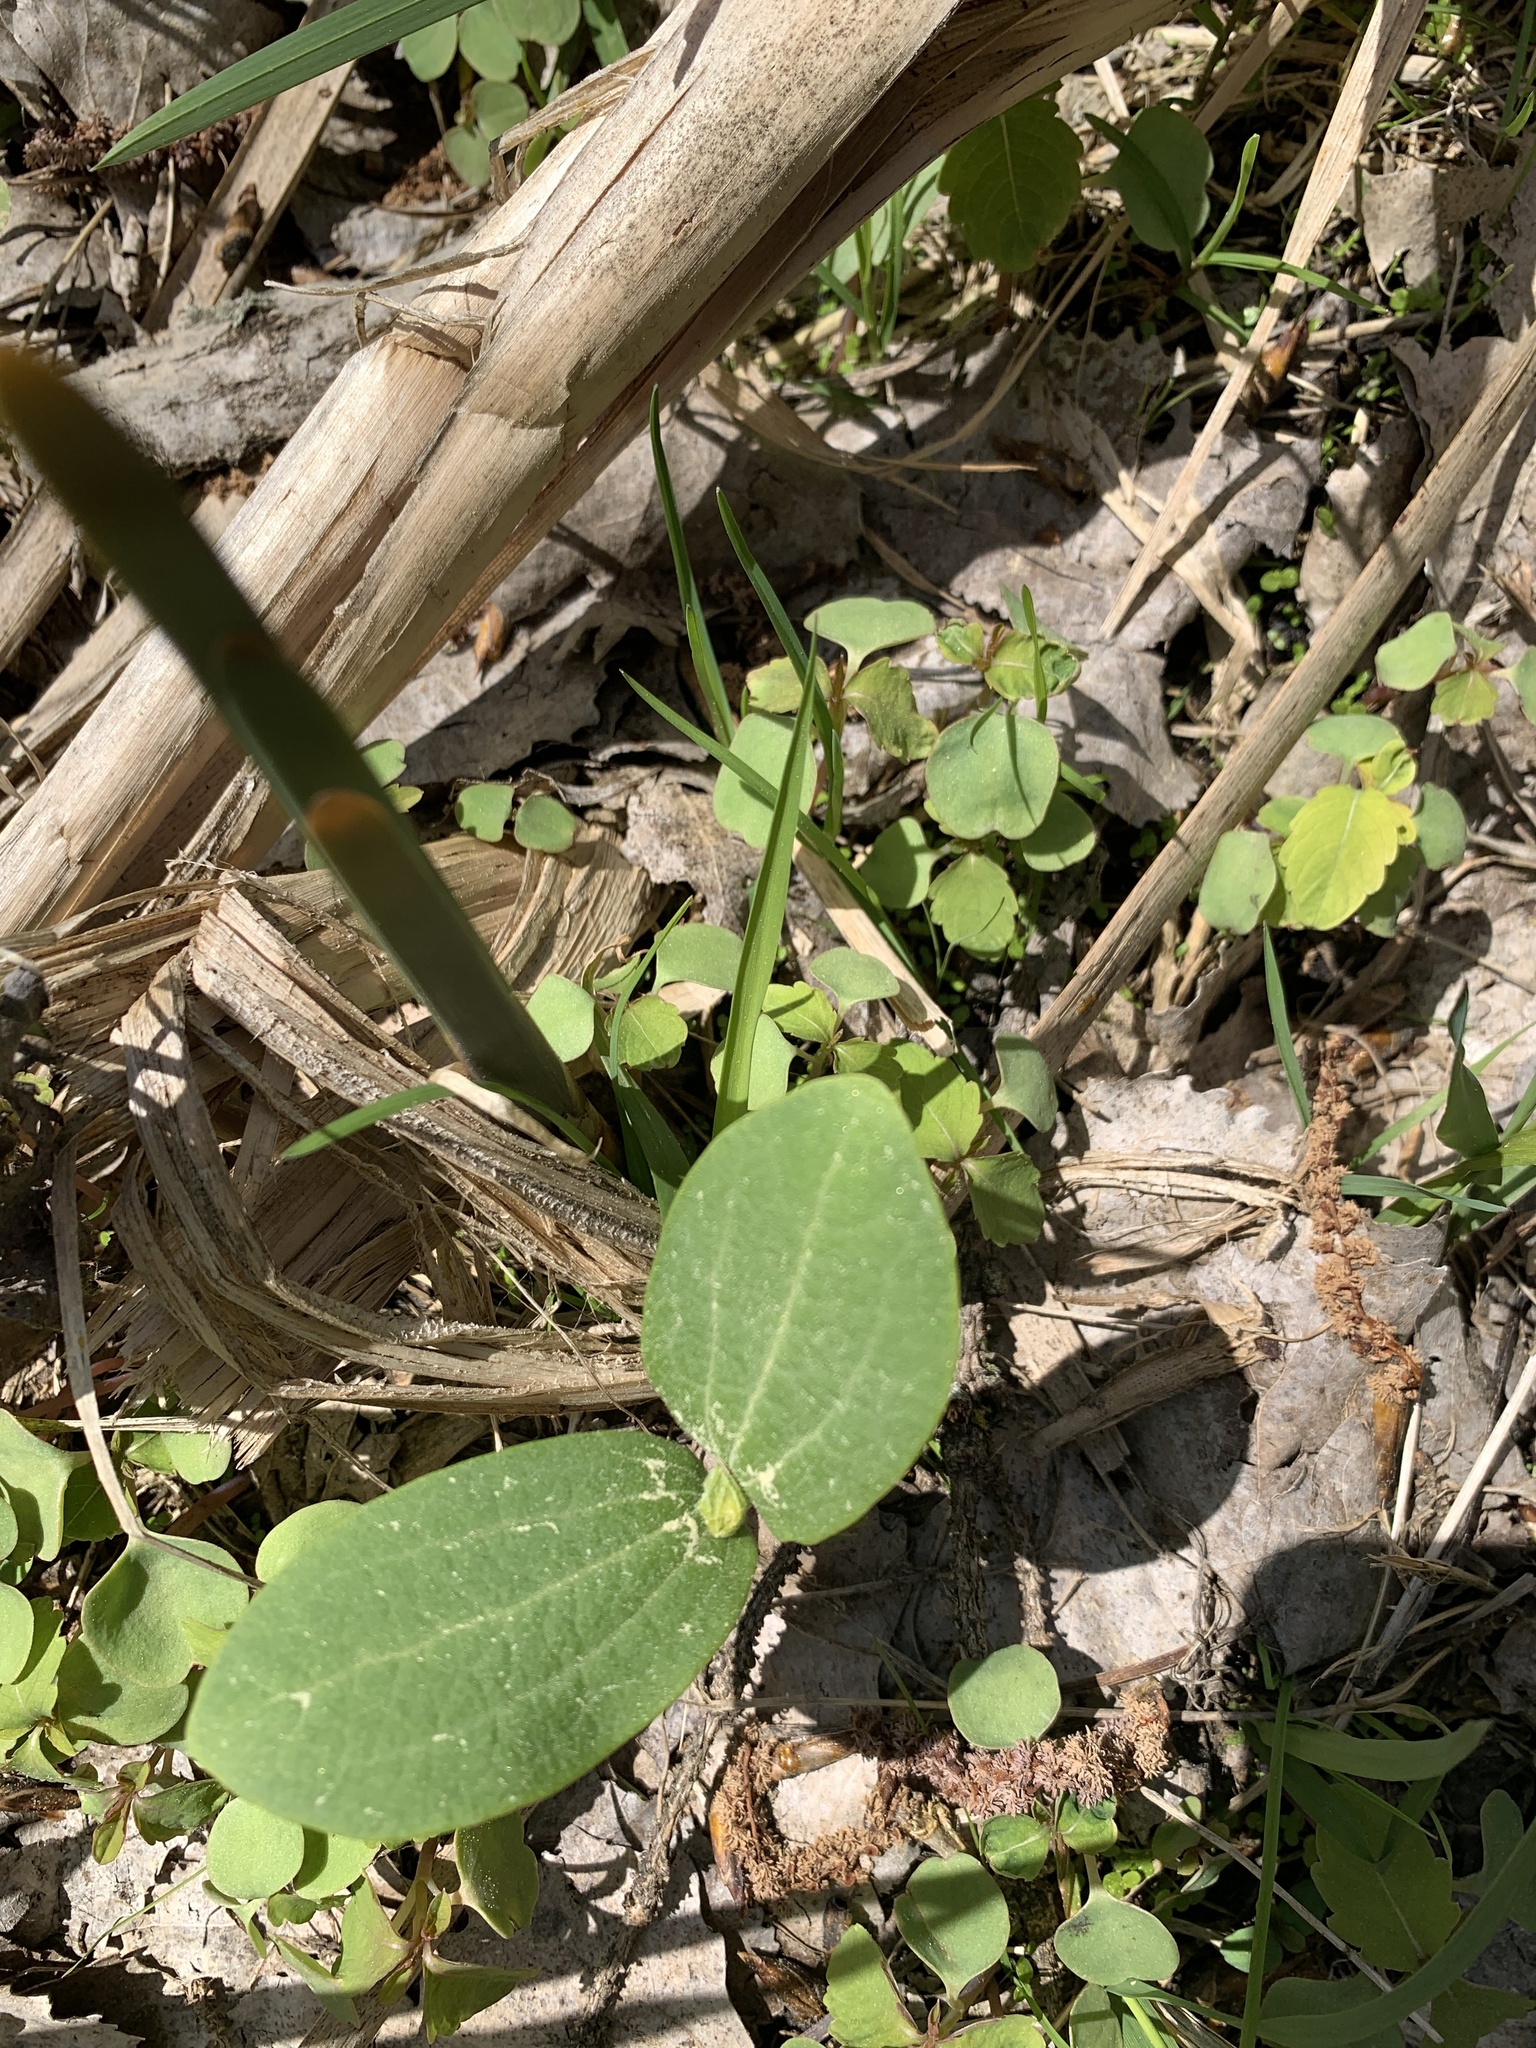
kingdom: Plantae
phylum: Tracheophyta
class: Magnoliopsida
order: Cucurbitales
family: Cucurbitaceae
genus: Echinocystis
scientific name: Echinocystis lobata
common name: Wild cucumber
